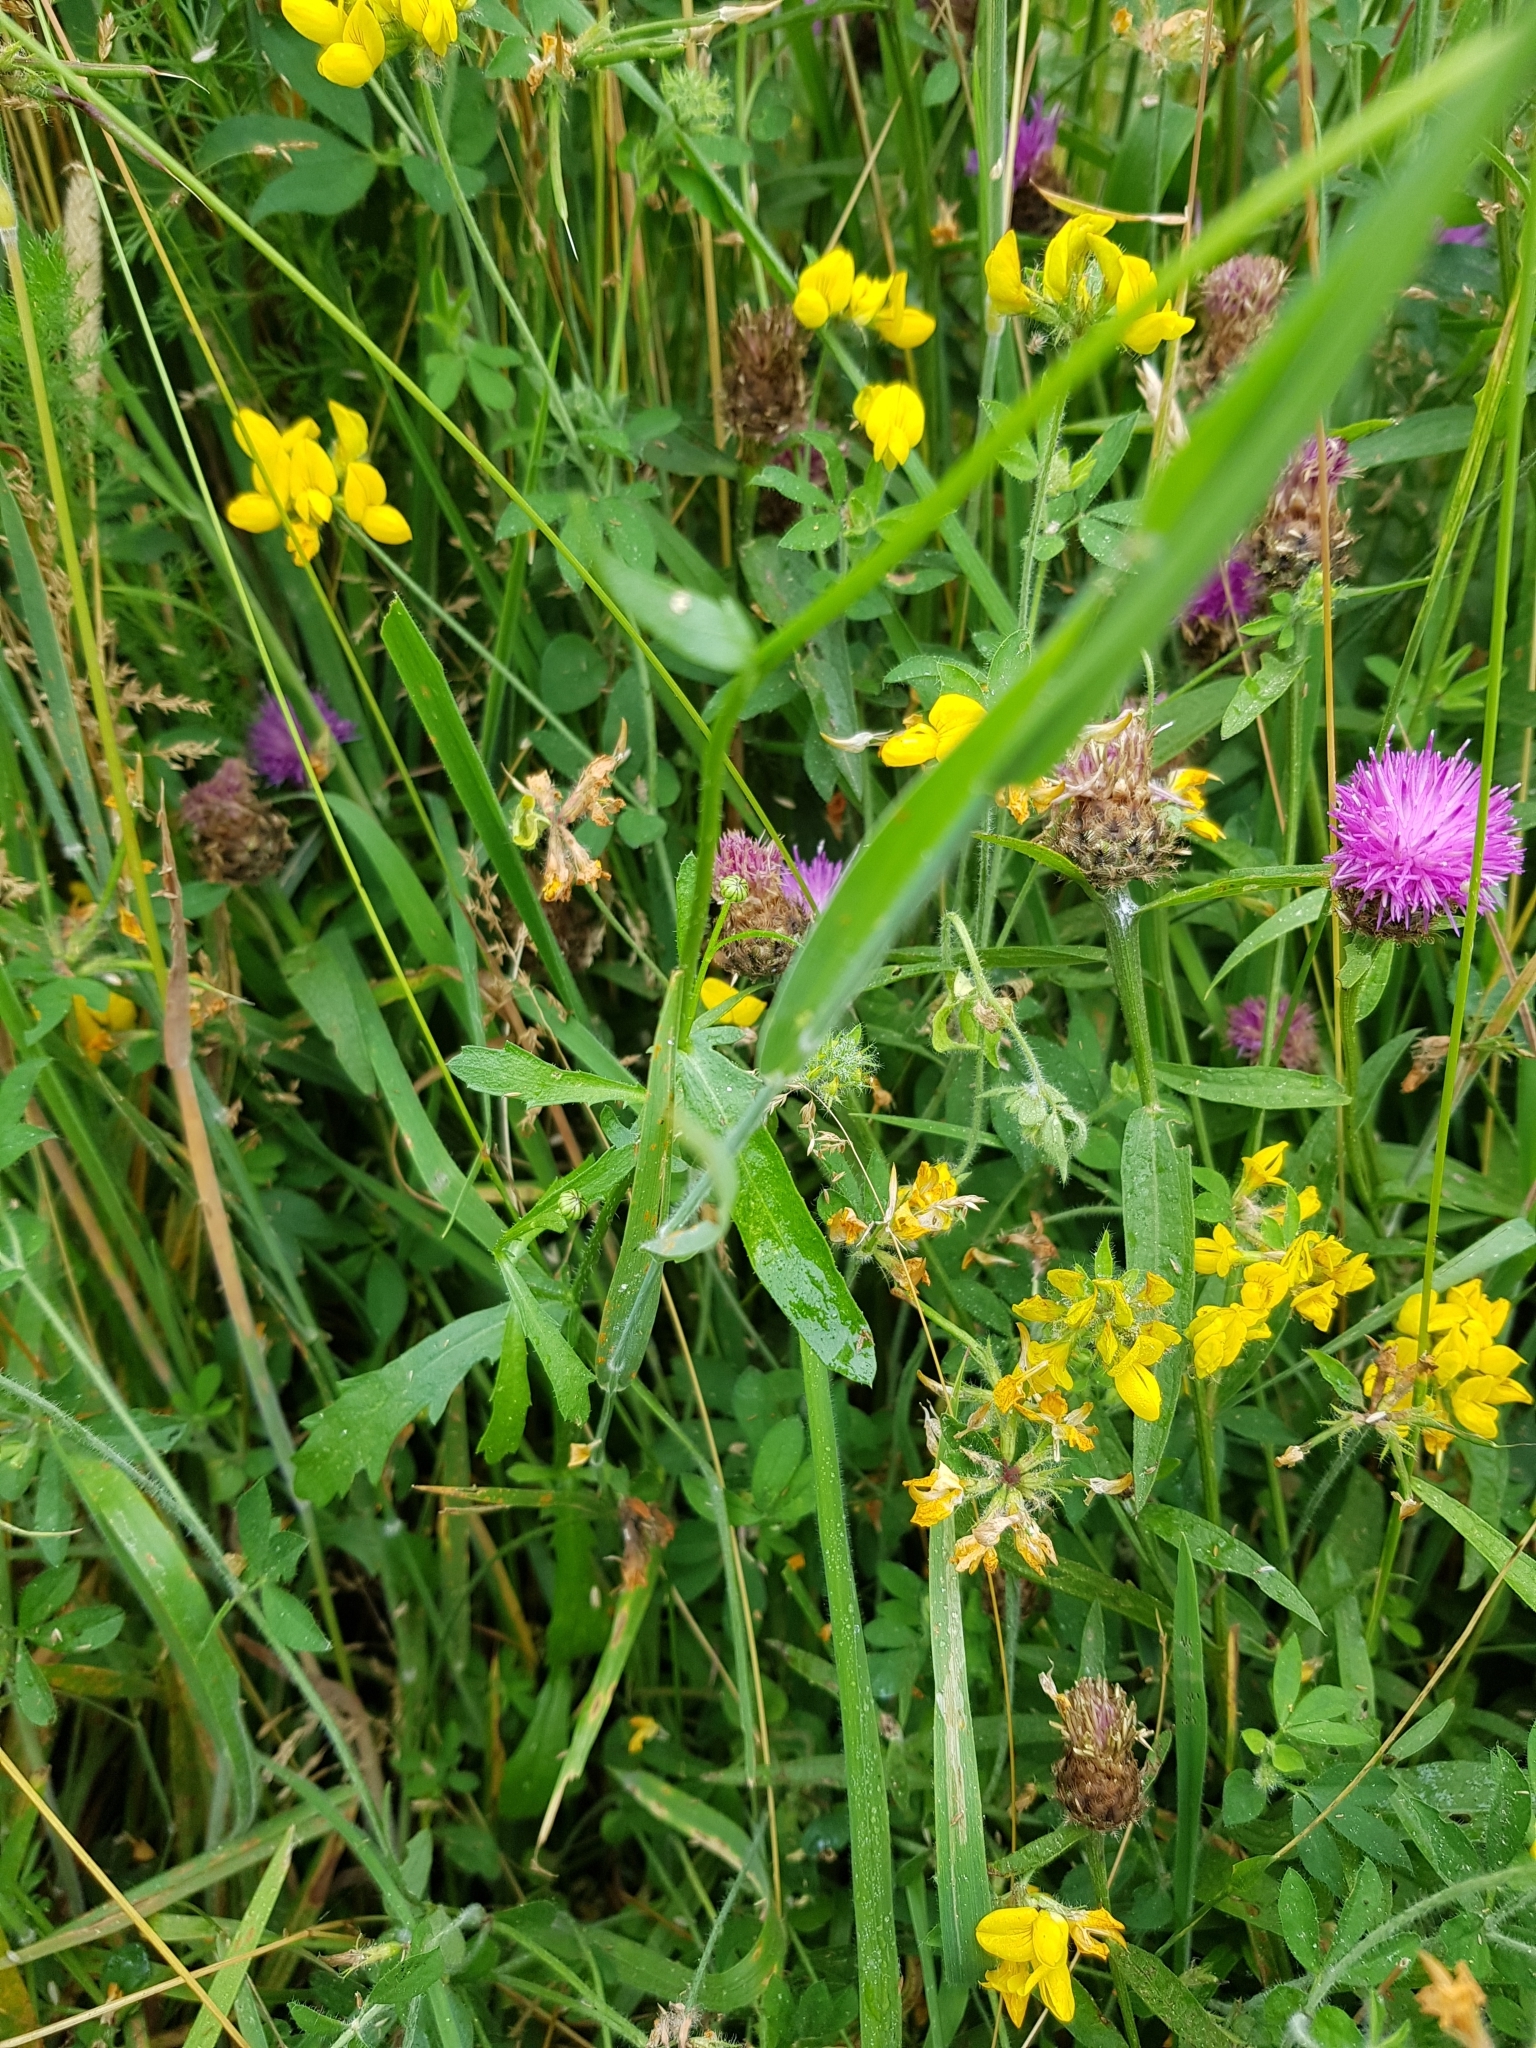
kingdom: Plantae
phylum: Tracheophyta
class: Magnoliopsida
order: Asterales
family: Asteraceae
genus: Leucanthemum
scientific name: Leucanthemum vulgare
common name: Oxeye daisy
